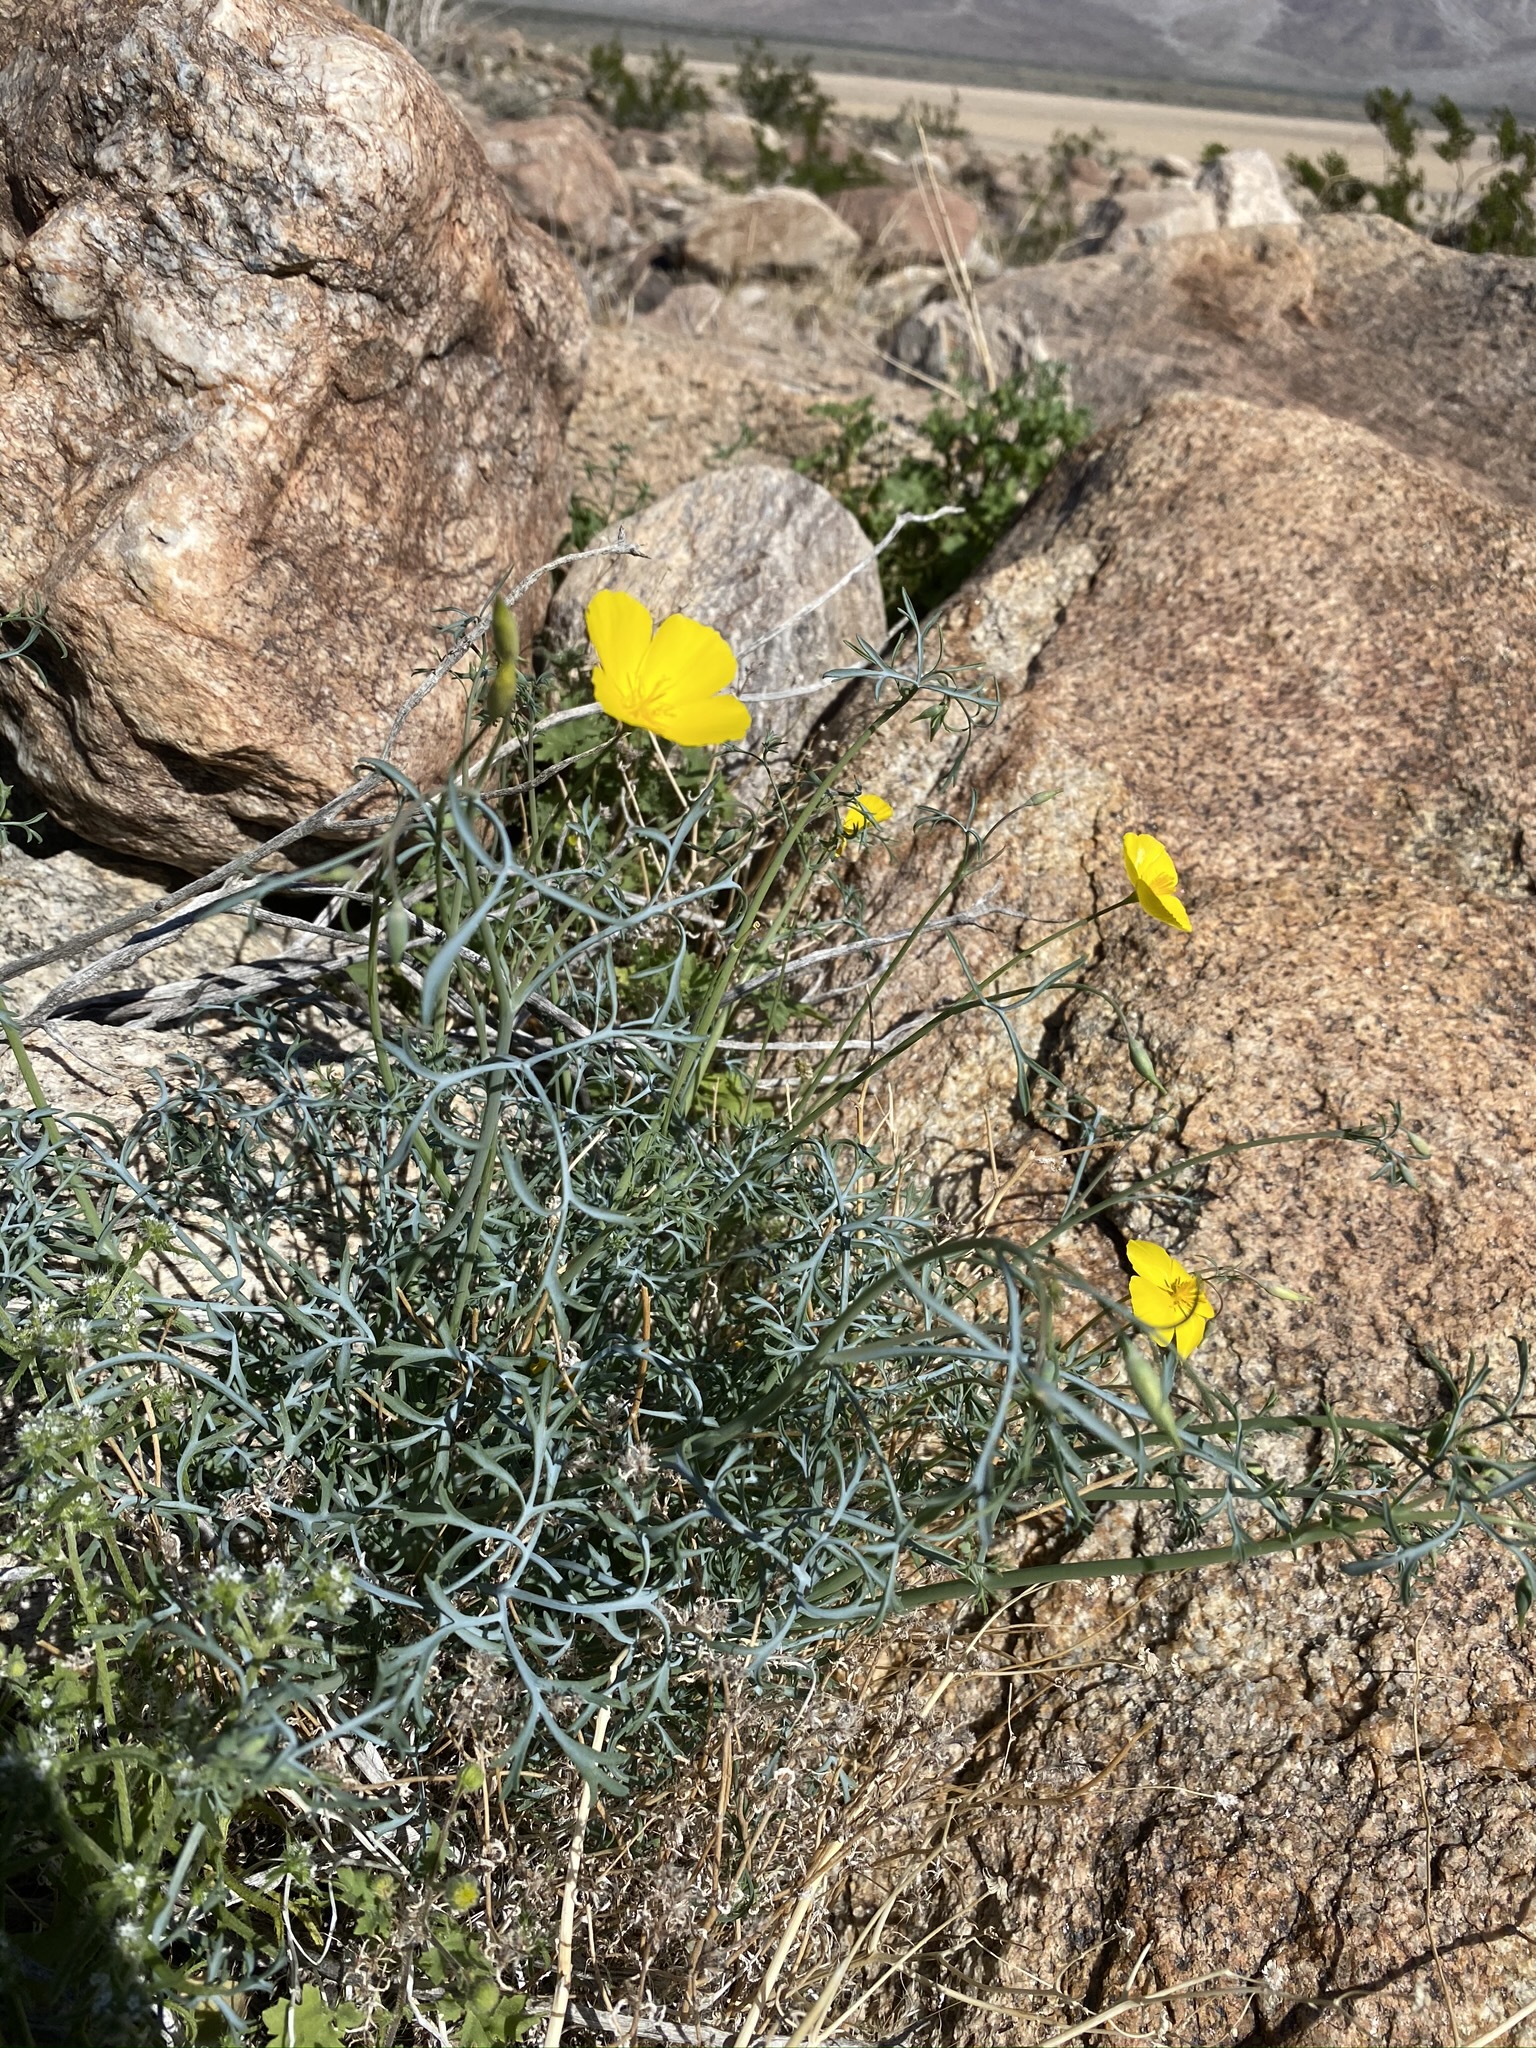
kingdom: Plantae
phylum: Tracheophyta
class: Magnoliopsida
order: Ranunculales
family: Papaveraceae
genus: Eschscholzia
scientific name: Eschscholzia parishii
